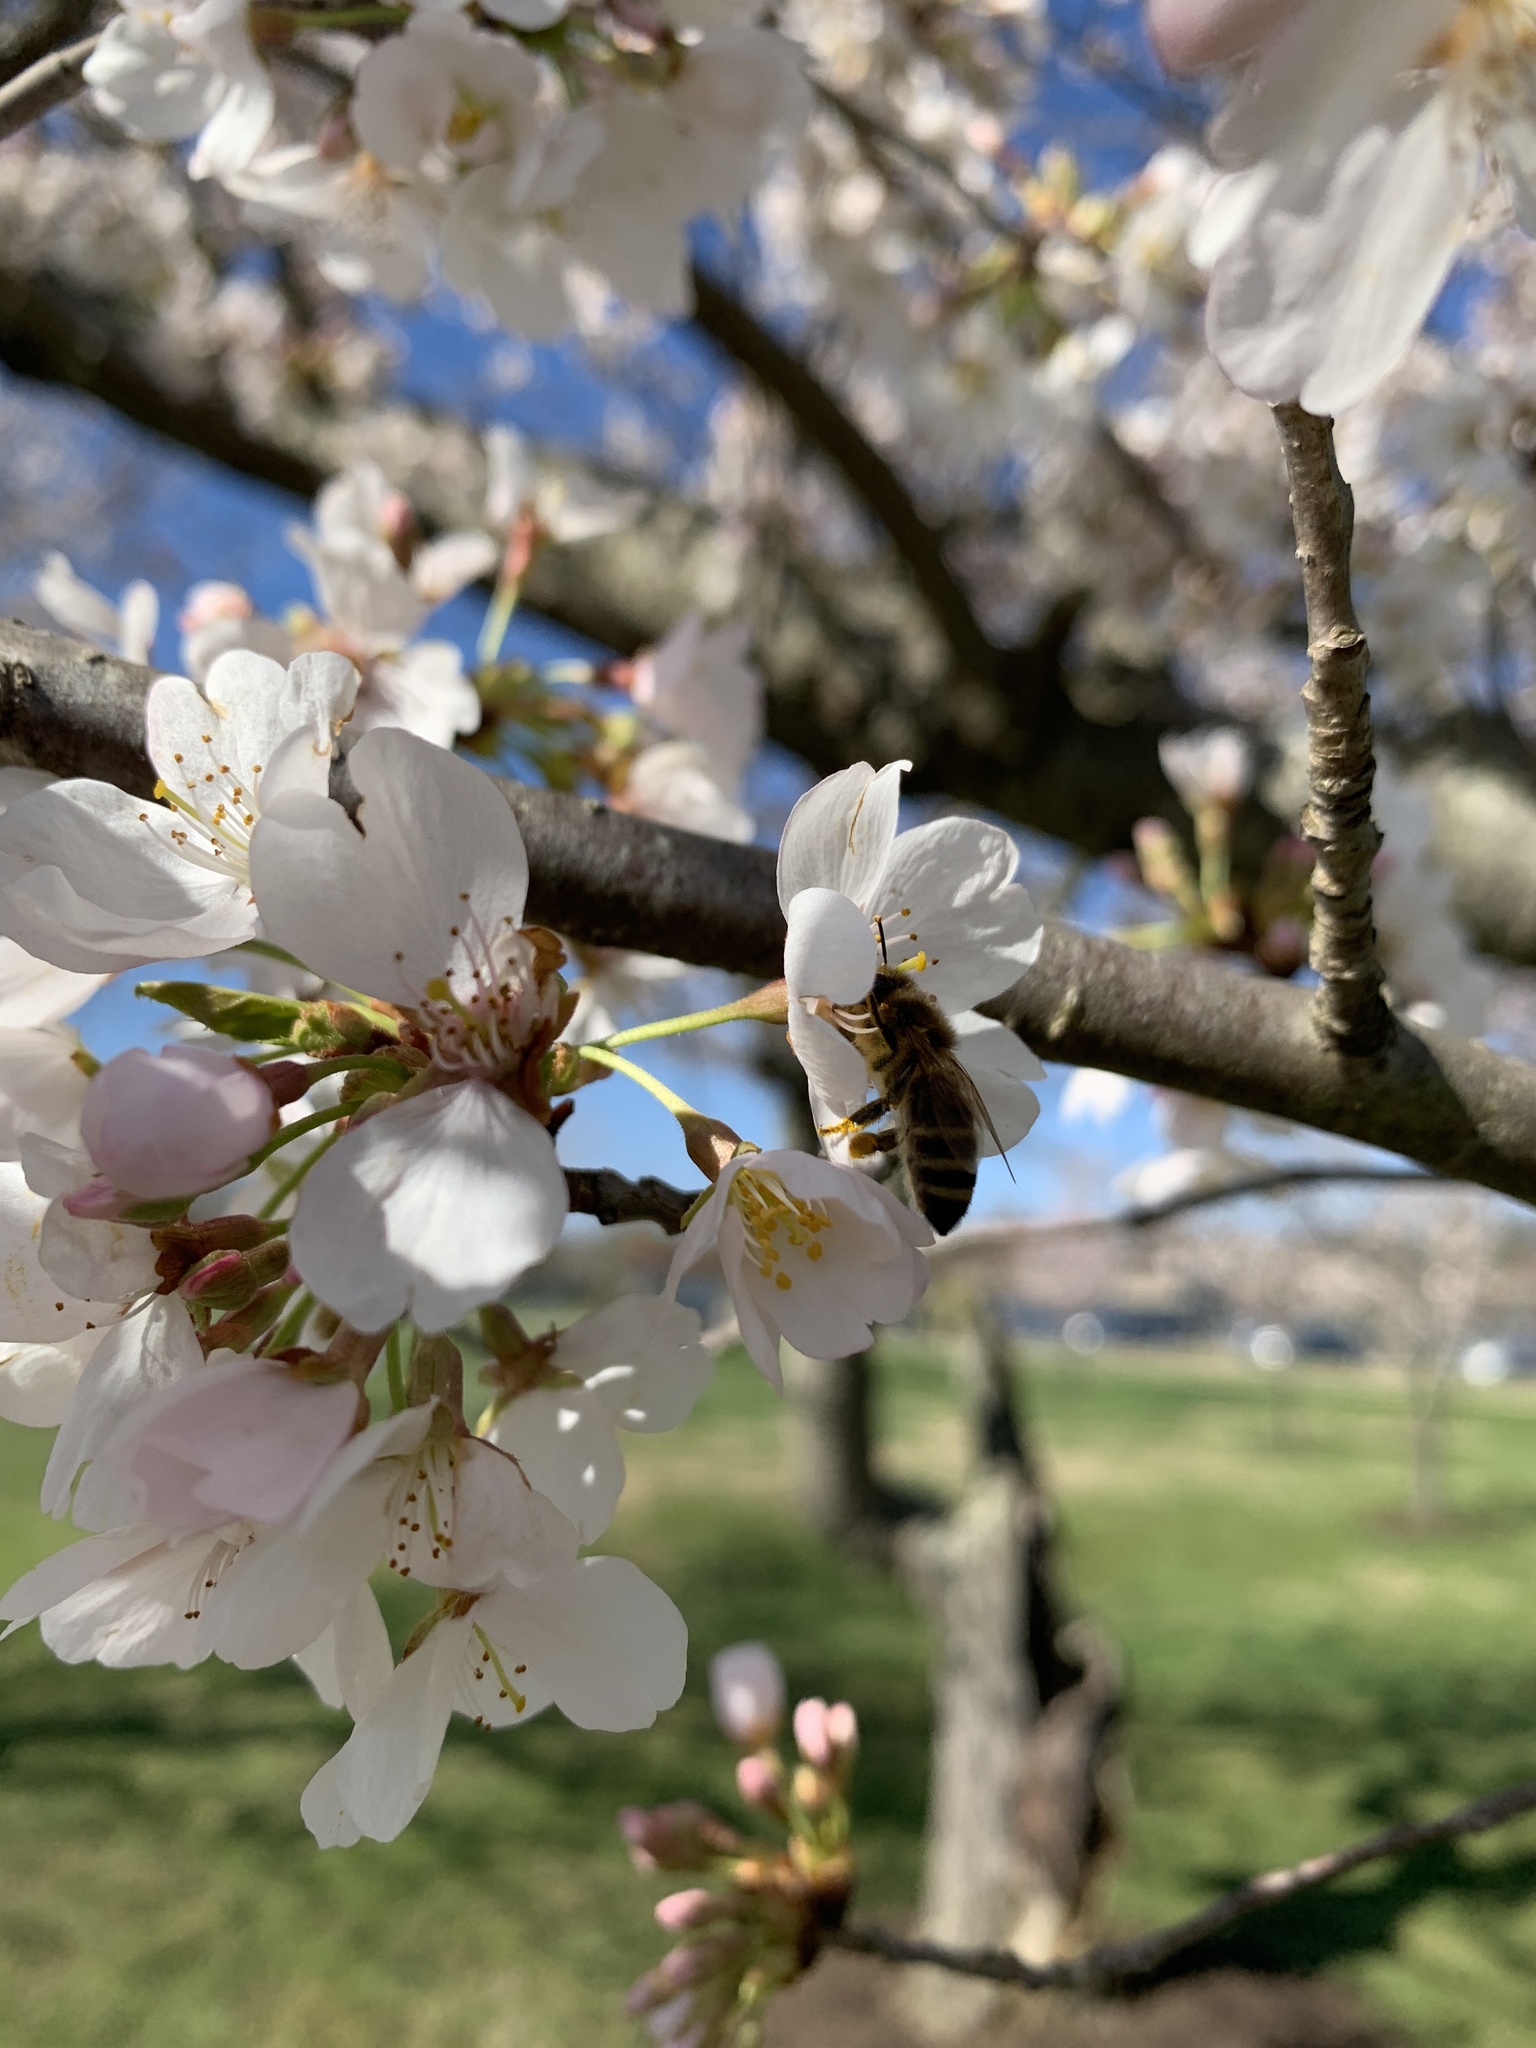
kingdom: Animalia
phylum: Arthropoda
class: Insecta
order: Hymenoptera
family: Apidae
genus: Apis
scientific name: Apis mellifera
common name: Honey bee
